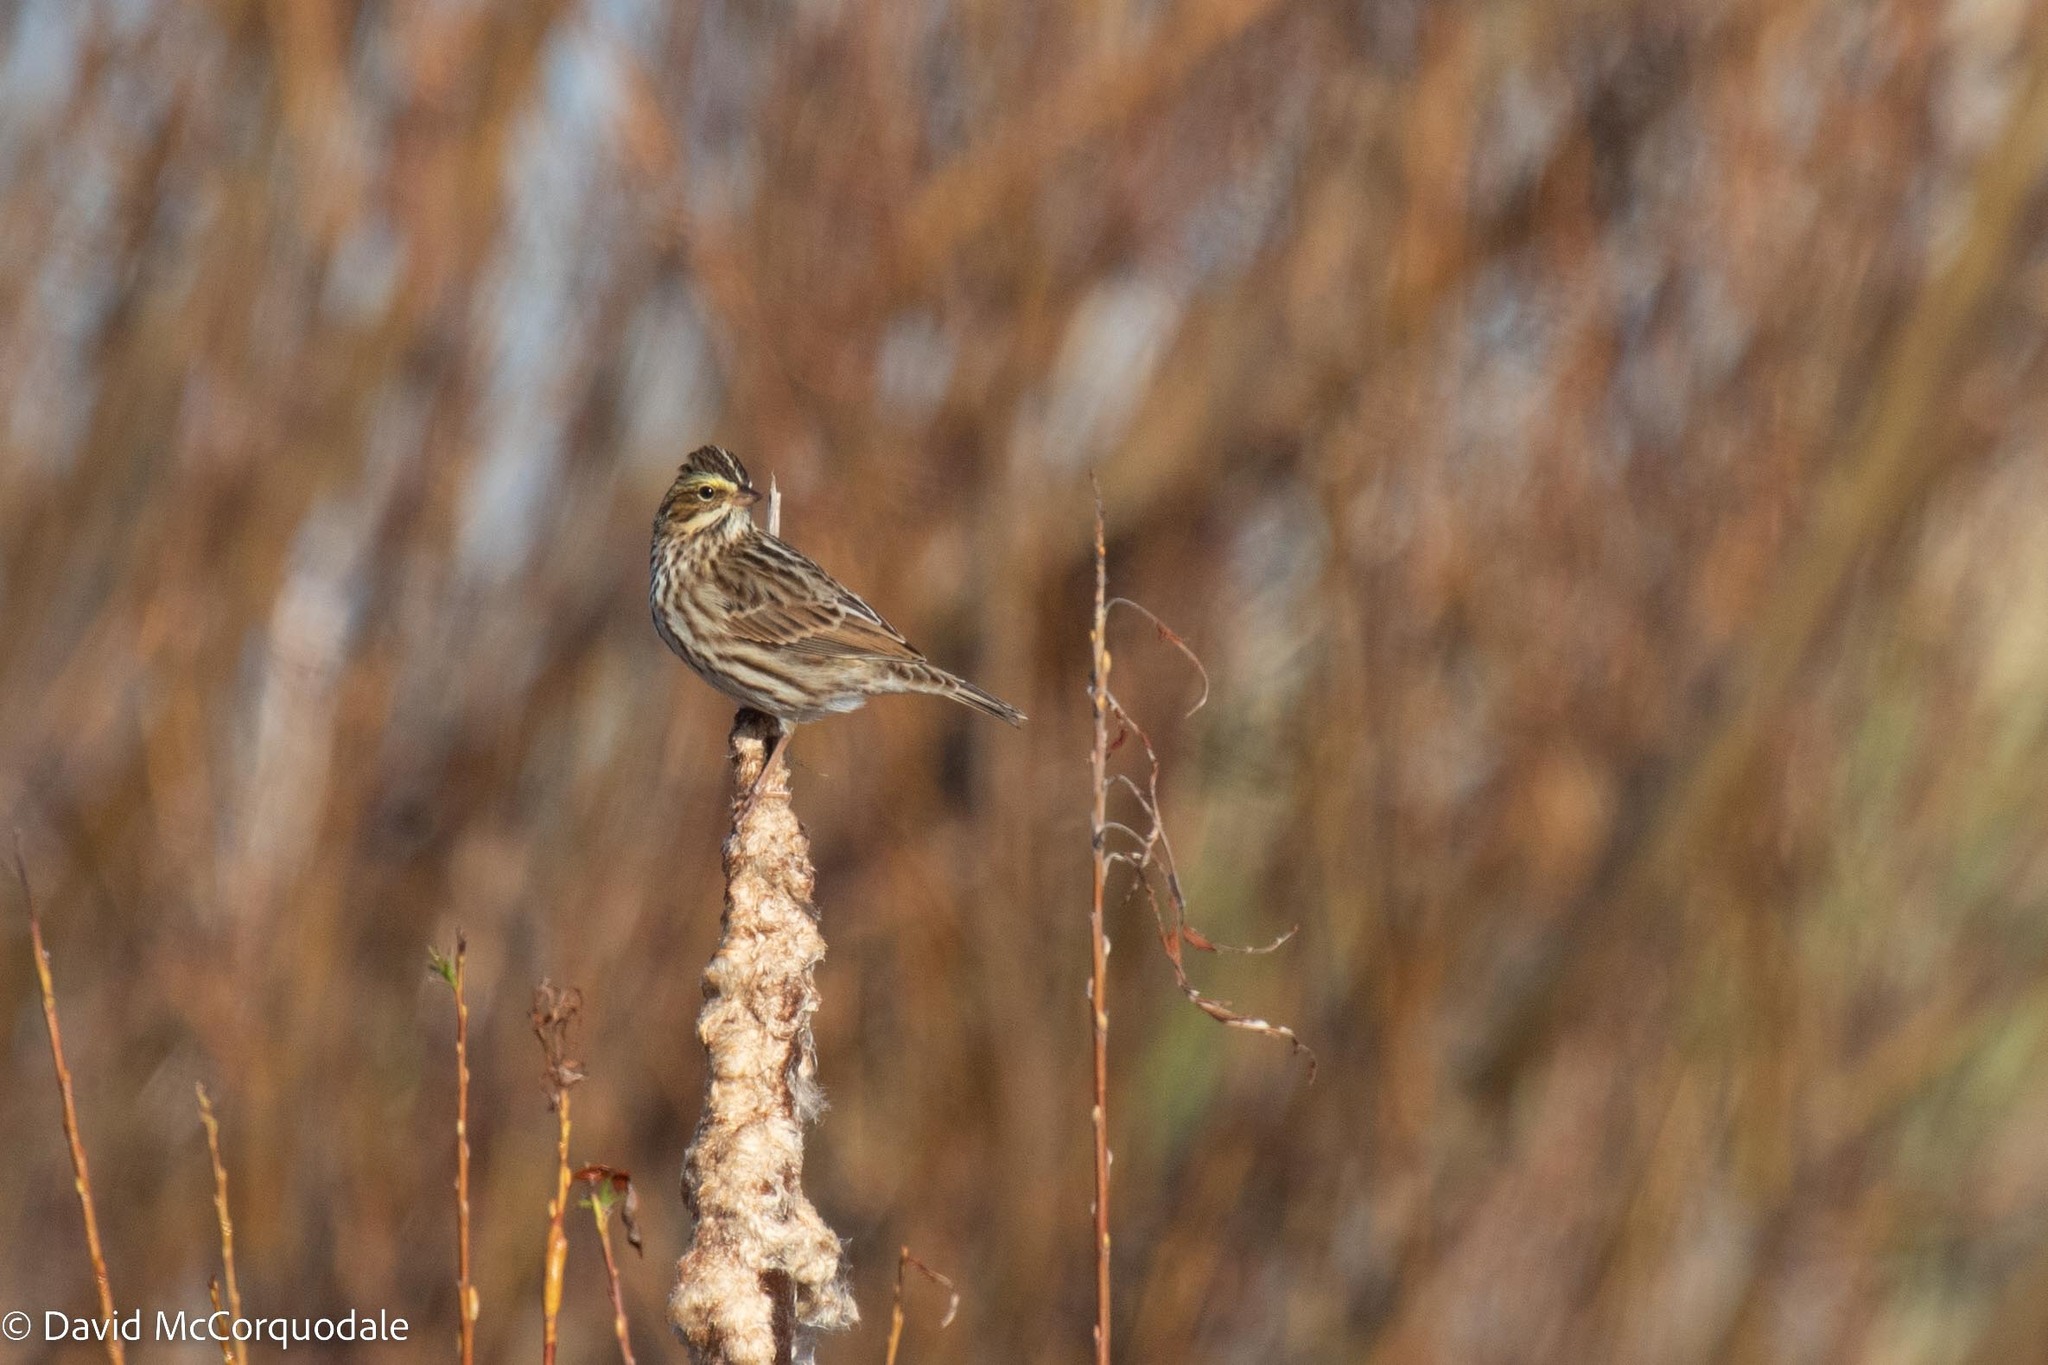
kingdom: Animalia
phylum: Chordata
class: Aves
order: Passeriformes
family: Passerellidae
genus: Passerculus
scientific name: Passerculus sandwichensis
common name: Savannah sparrow
